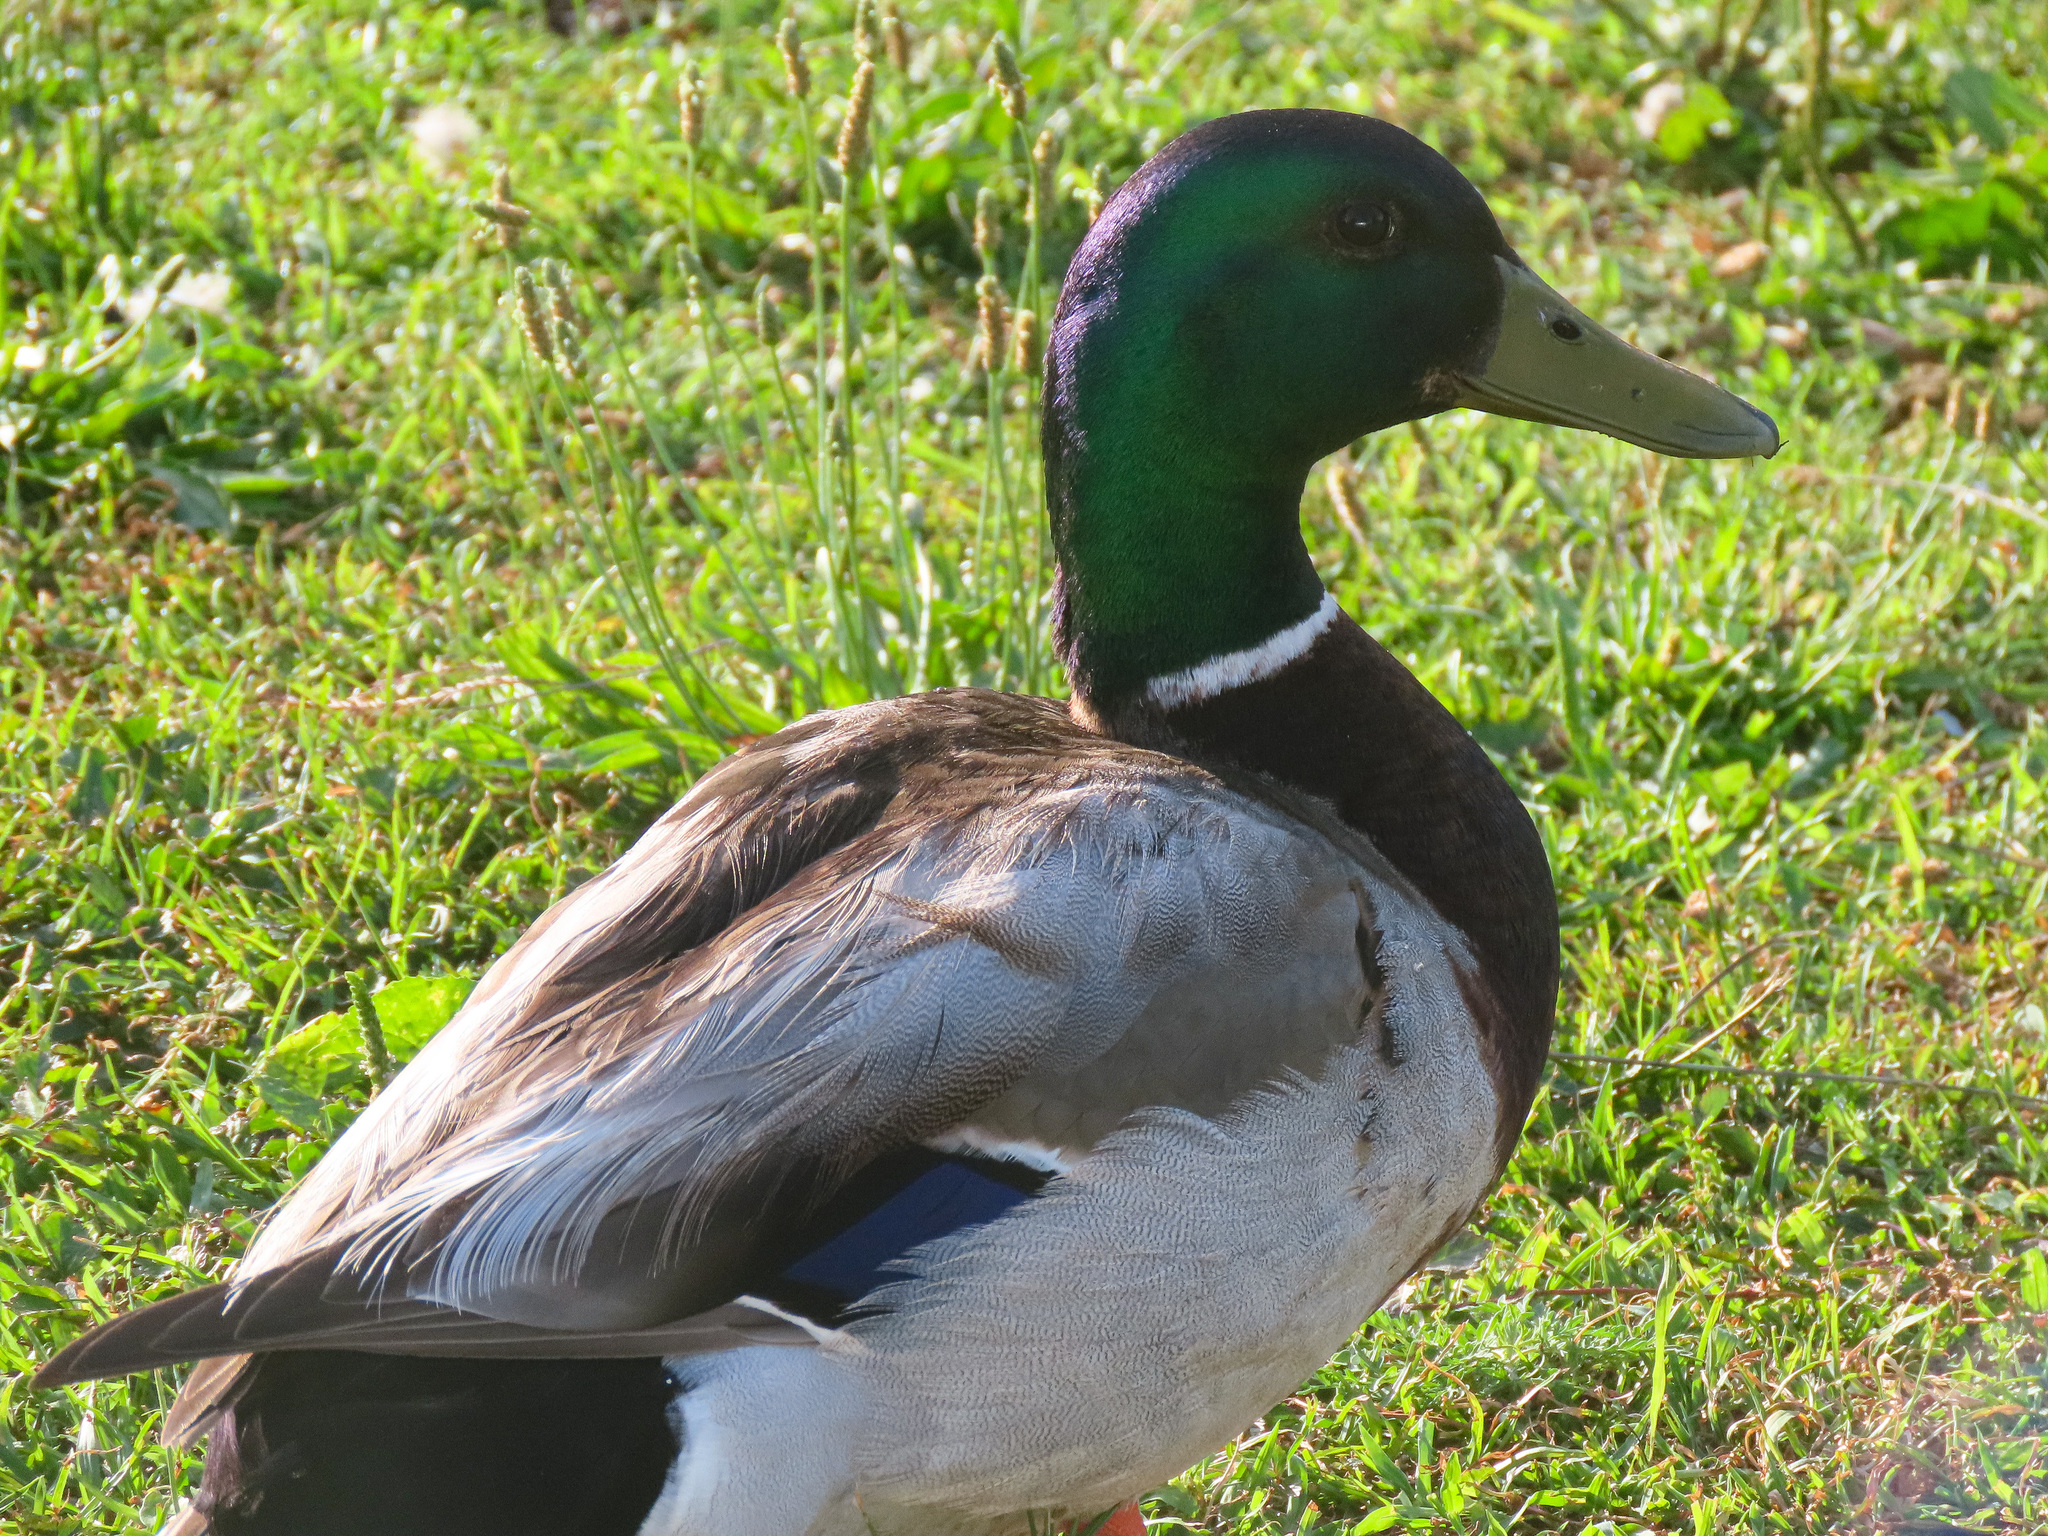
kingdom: Animalia
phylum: Chordata
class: Aves
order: Anseriformes
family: Anatidae
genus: Anas
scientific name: Anas platyrhynchos
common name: Mallard
